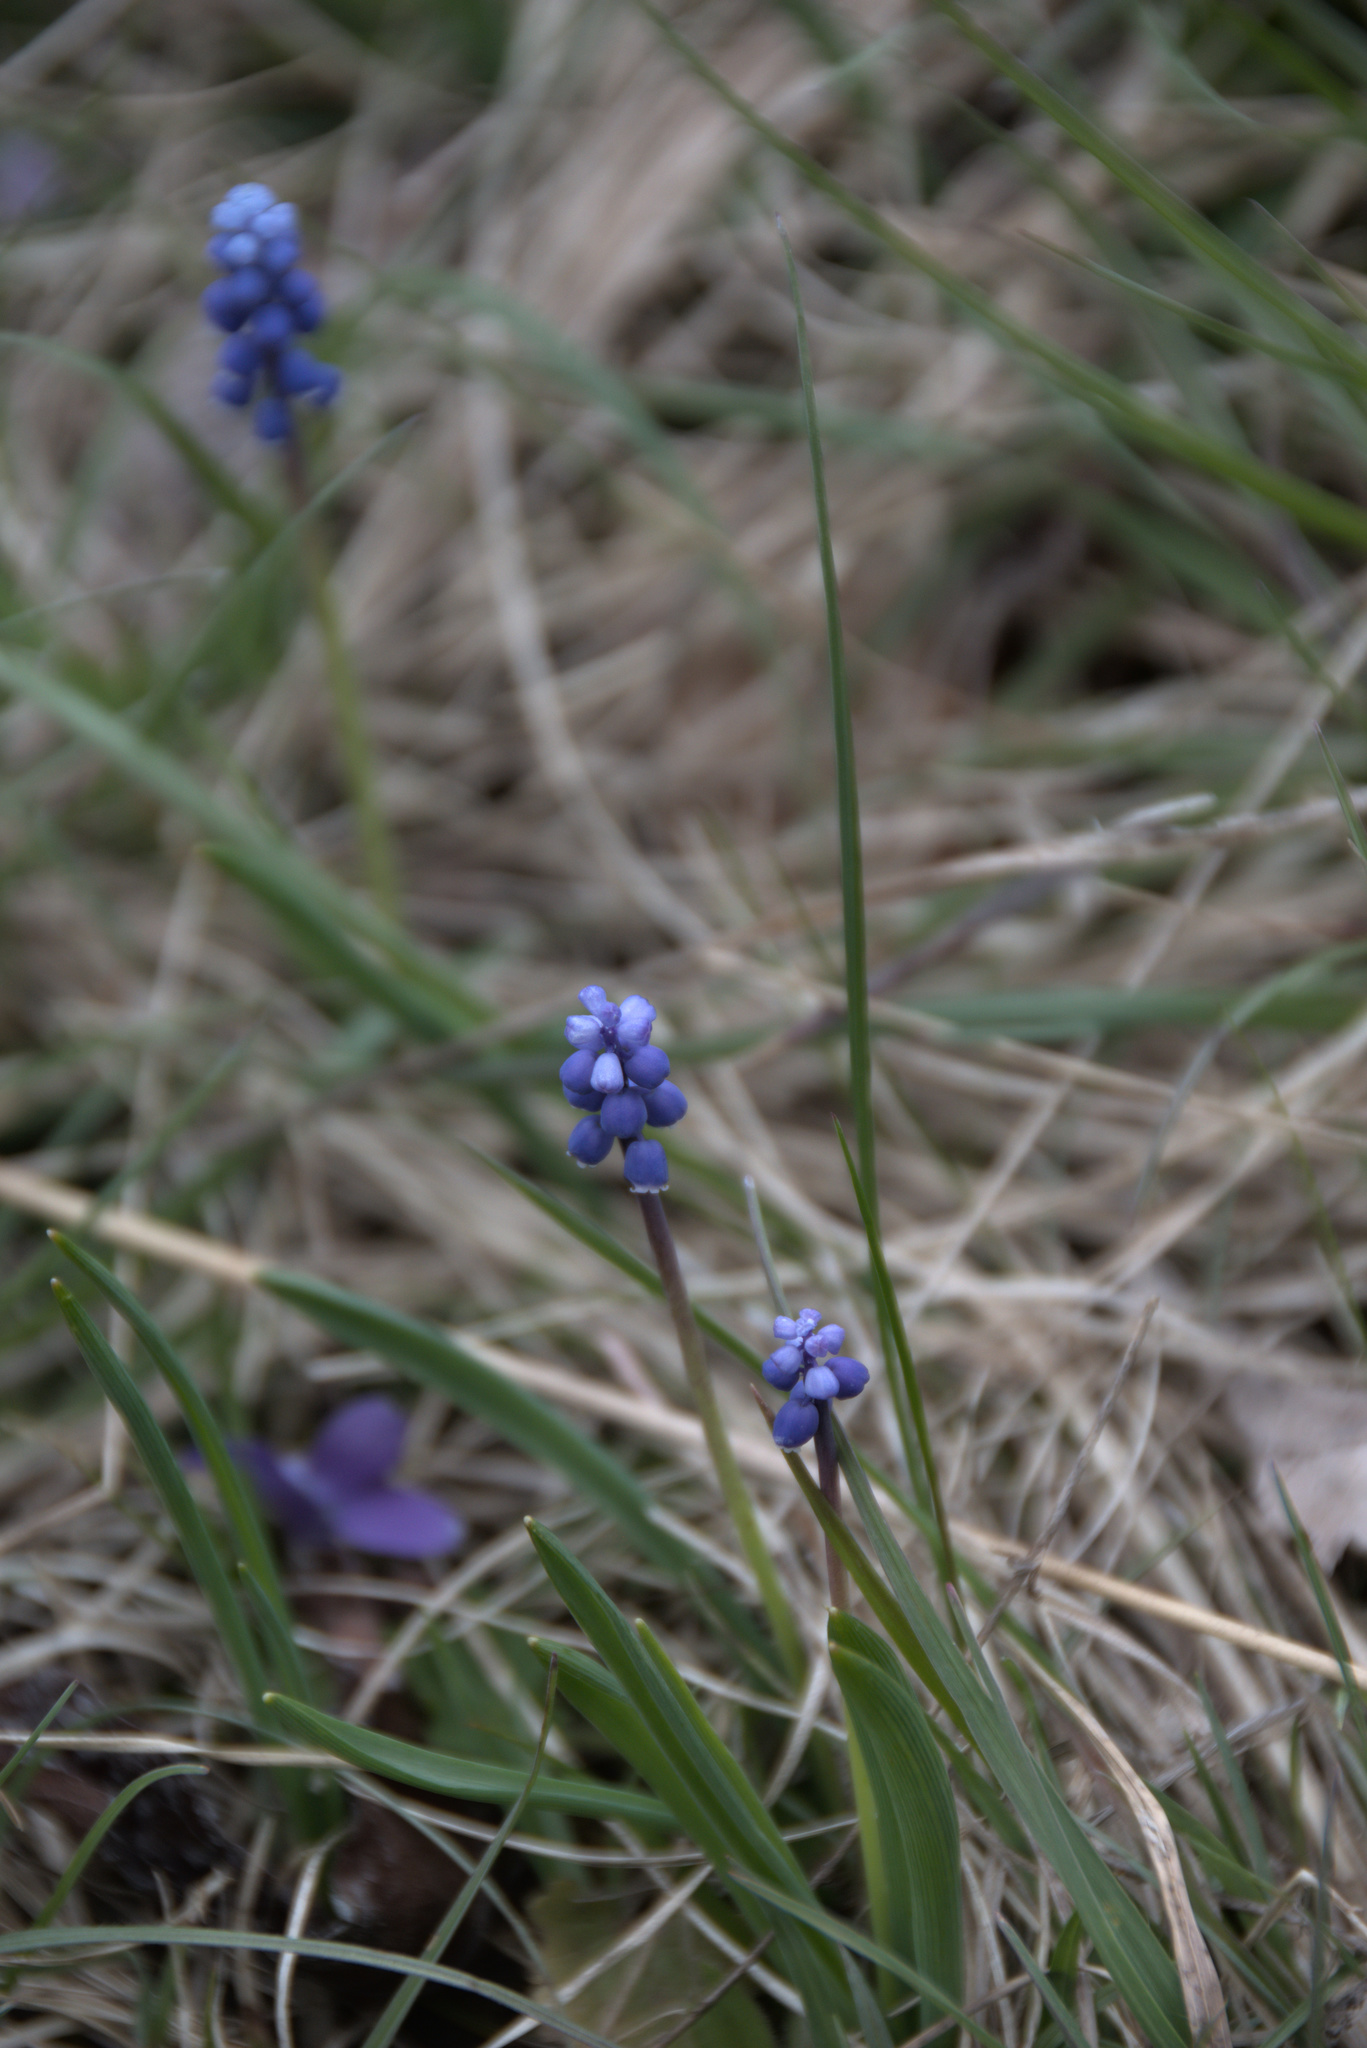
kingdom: Plantae
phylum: Tracheophyta
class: Liliopsida
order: Asparagales
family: Asparagaceae
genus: Muscari
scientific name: Muscari botryoides
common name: Compact grape-hyacinth
